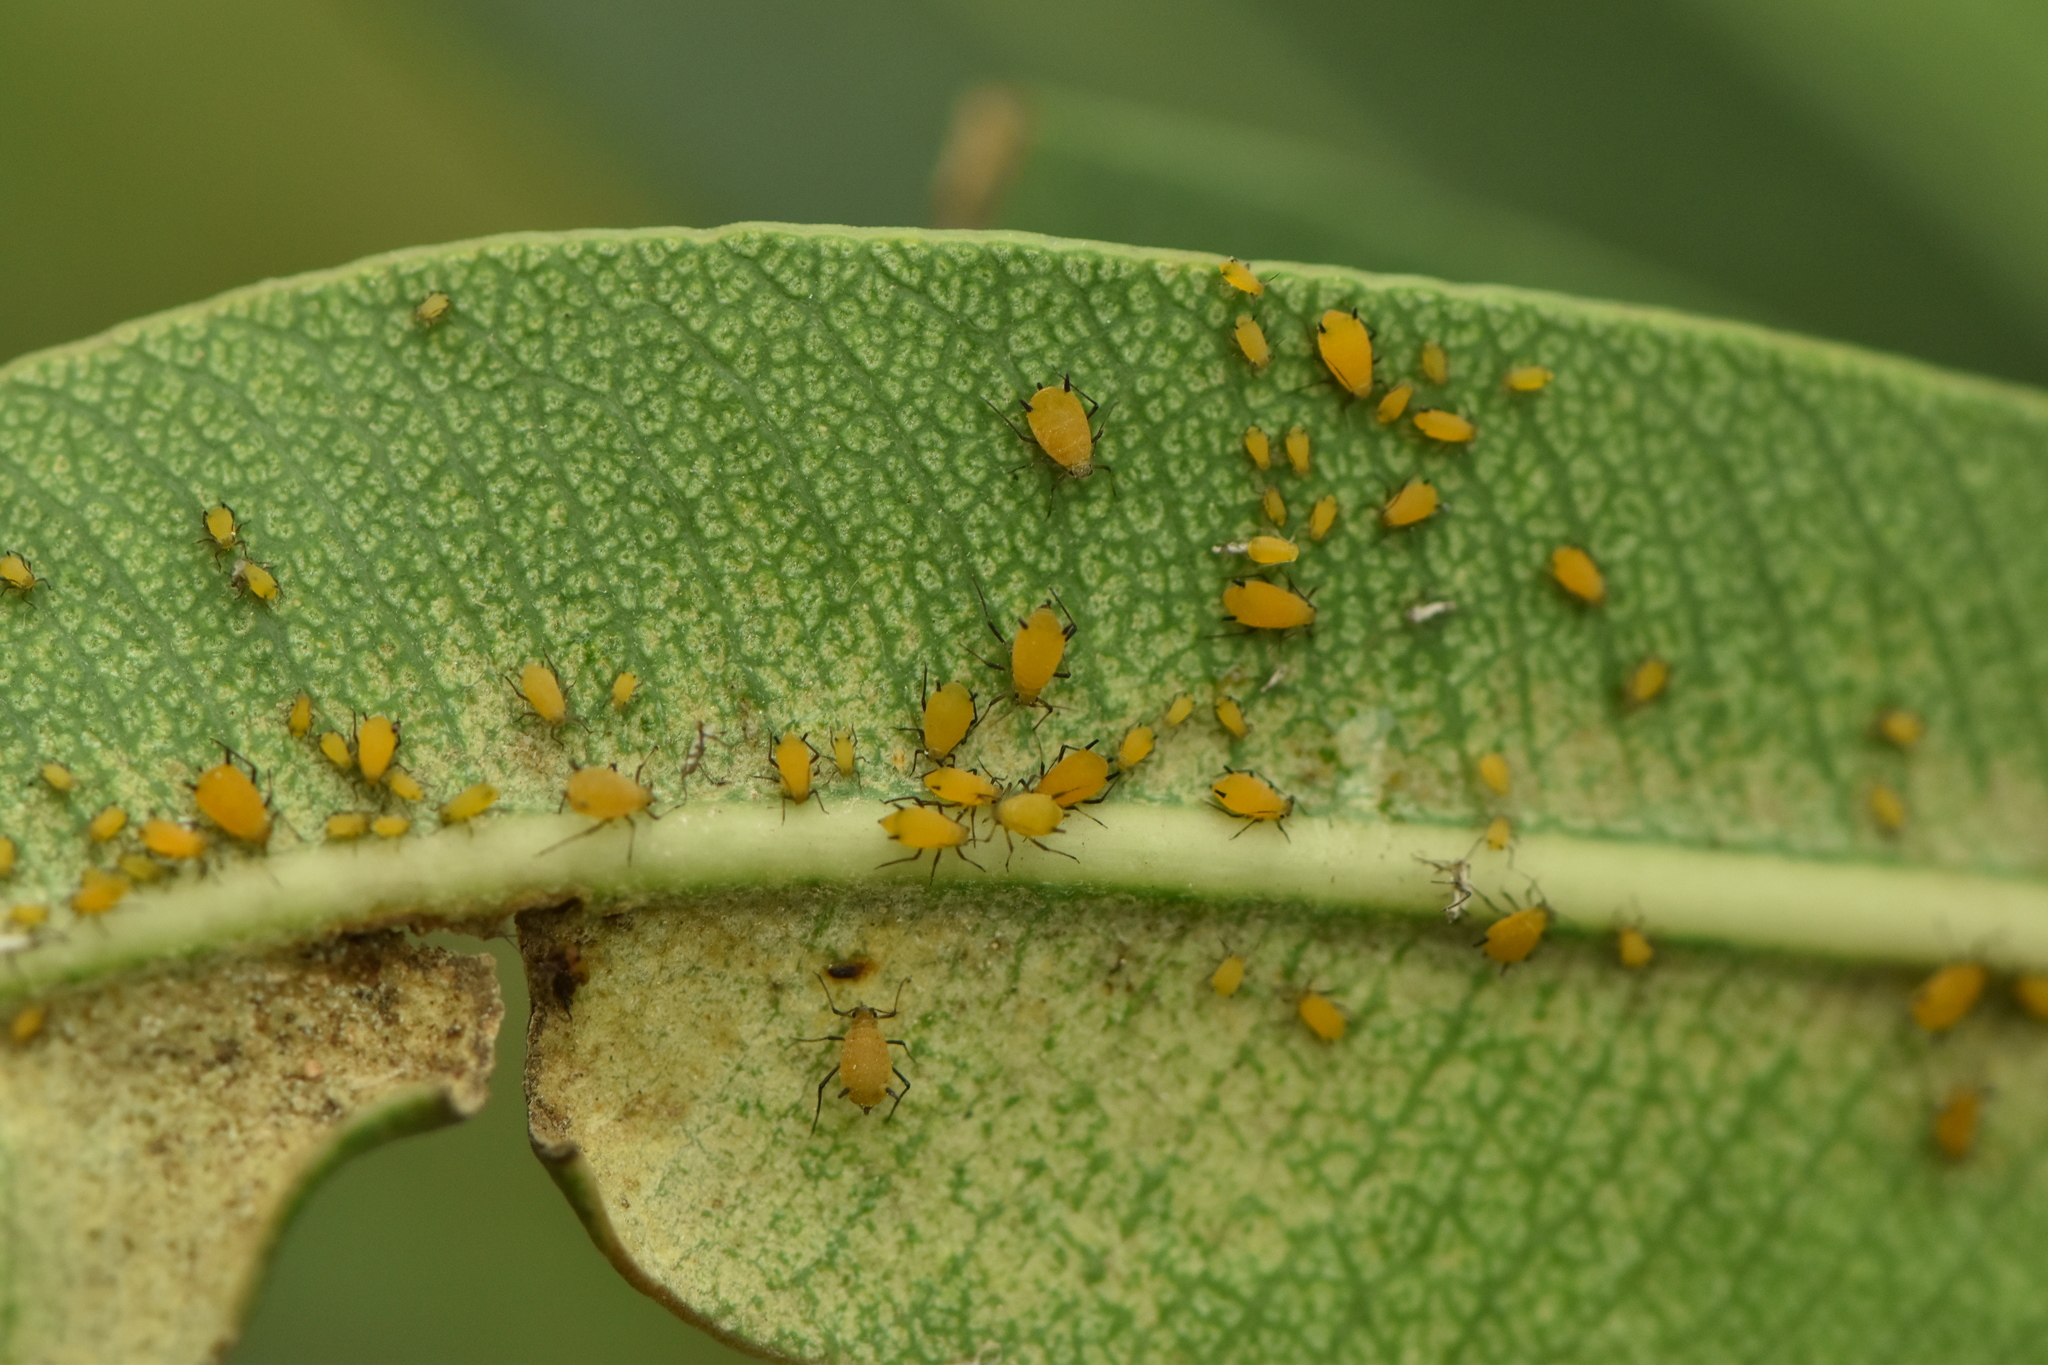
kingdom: Animalia
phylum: Arthropoda
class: Insecta
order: Hemiptera
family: Aphididae
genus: Aphis
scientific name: Aphis nerii
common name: Oleander aphid
